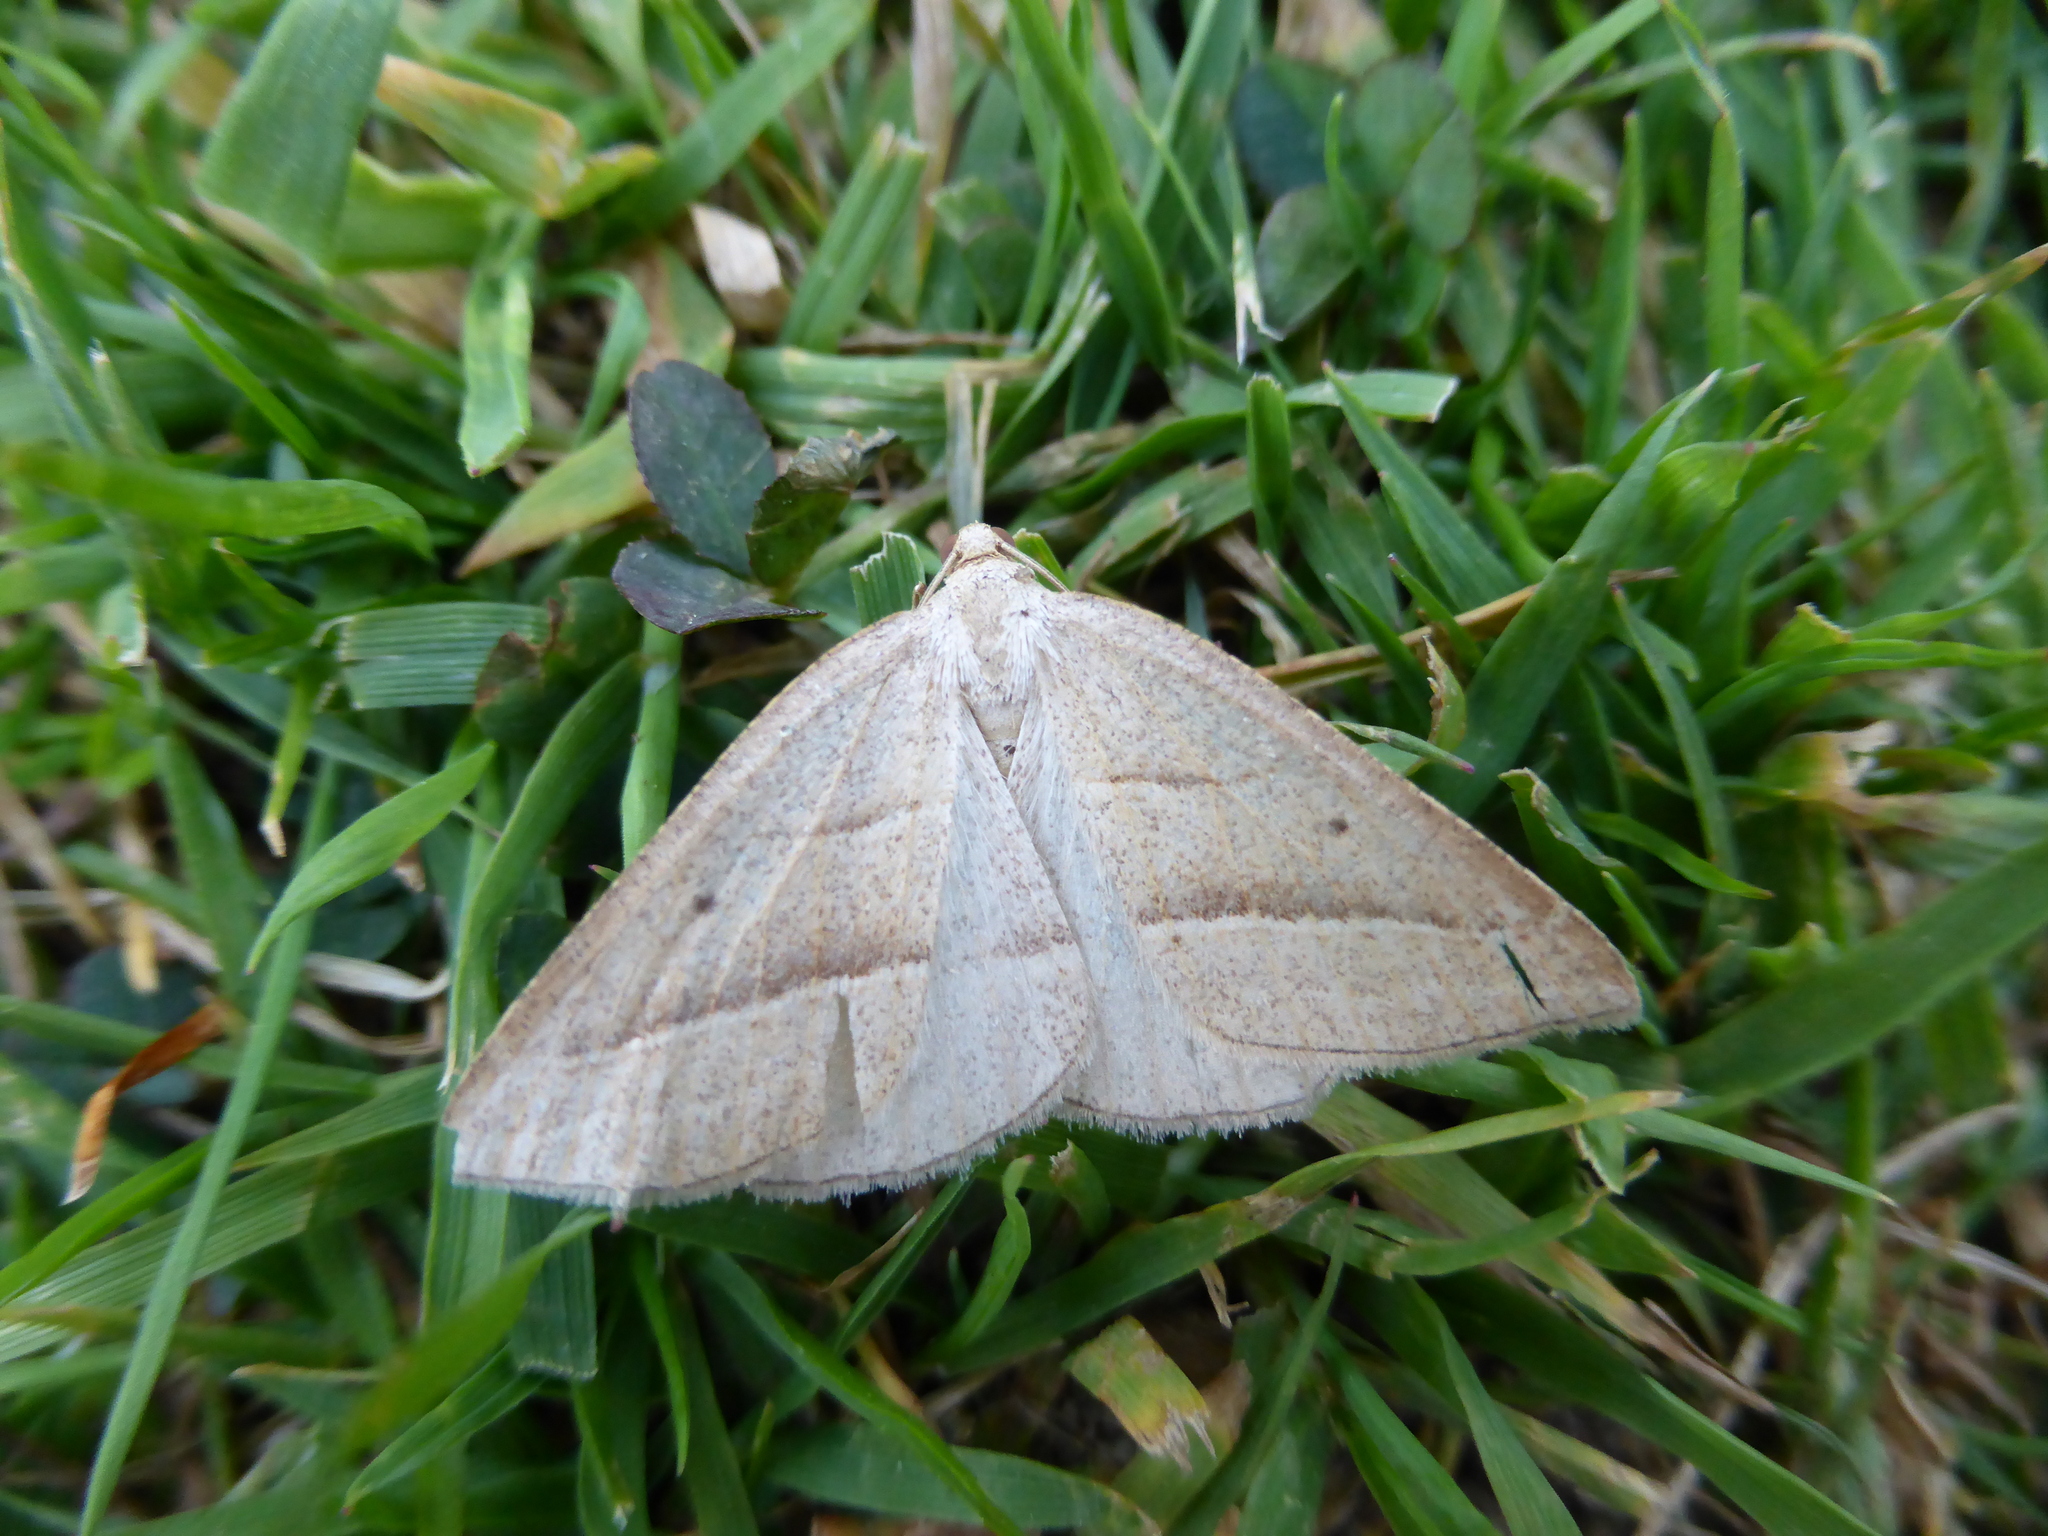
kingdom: Animalia
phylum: Arthropoda
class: Insecta
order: Lepidoptera
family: Pterophoridae
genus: Pterophorus
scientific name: Pterophorus Petrophora chlorosata
